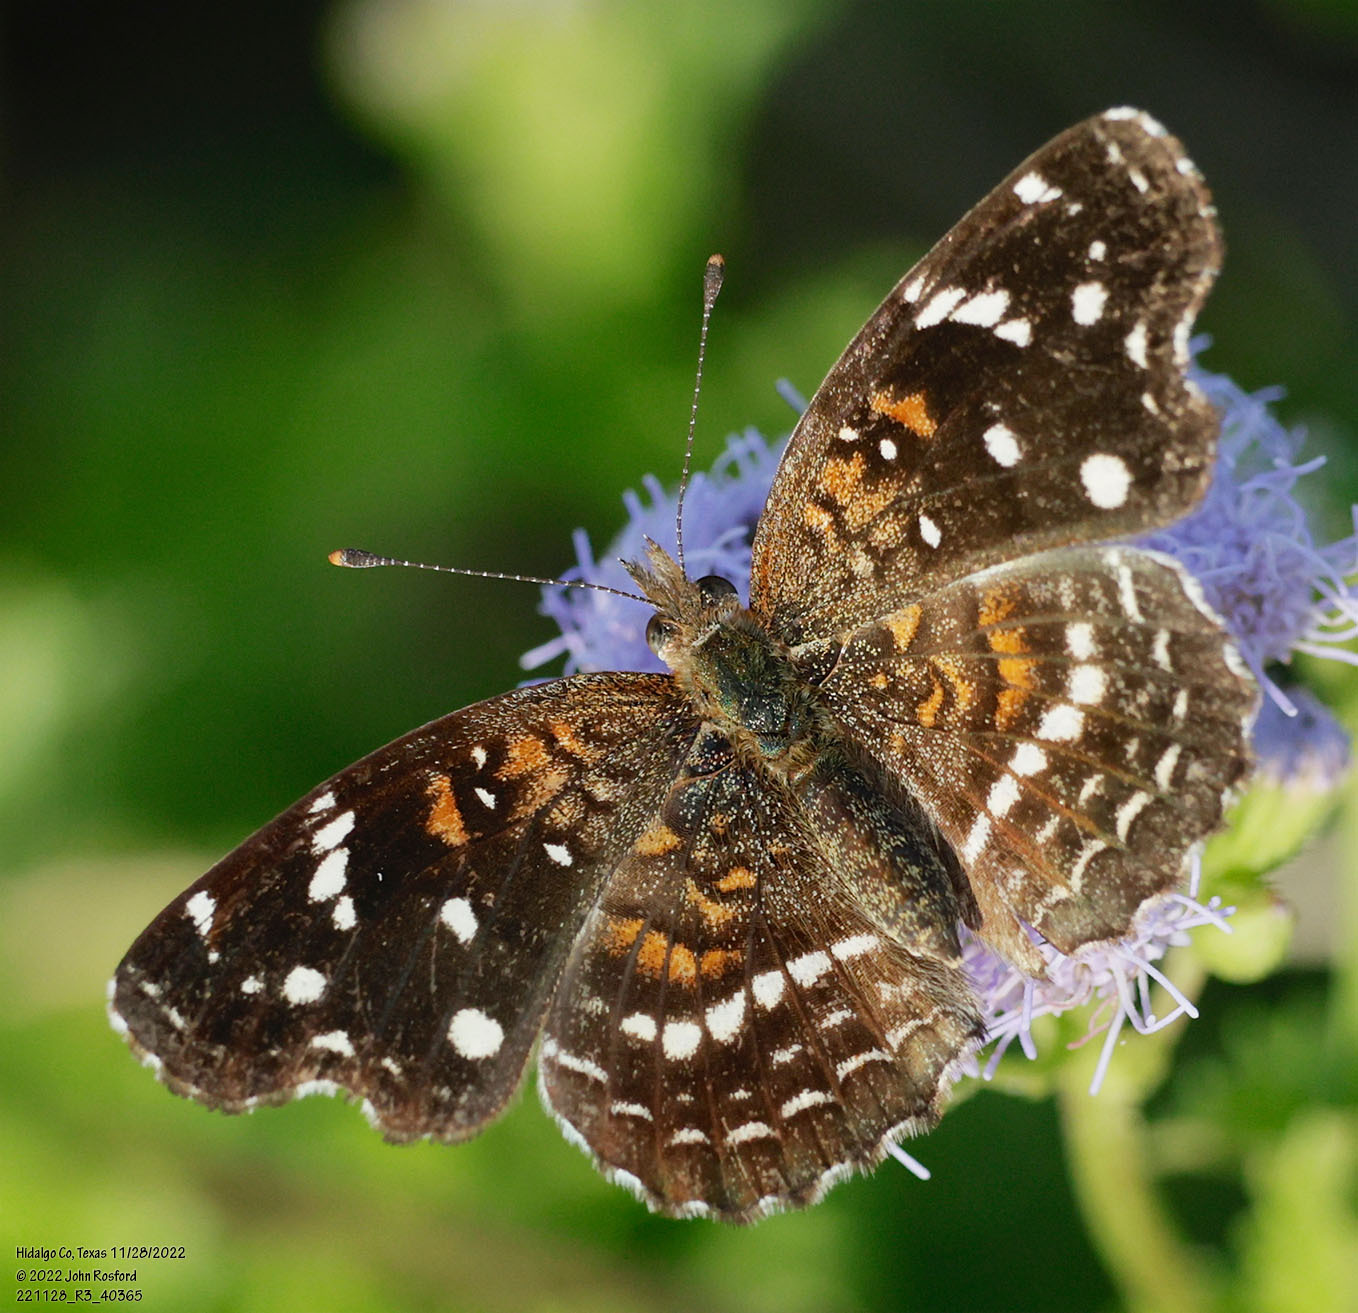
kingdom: Animalia
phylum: Arthropoda
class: Insecta
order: Lepidoptera
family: Nymphalidae
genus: Anthanassa
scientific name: Anthanassa texana
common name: Texan crescent
